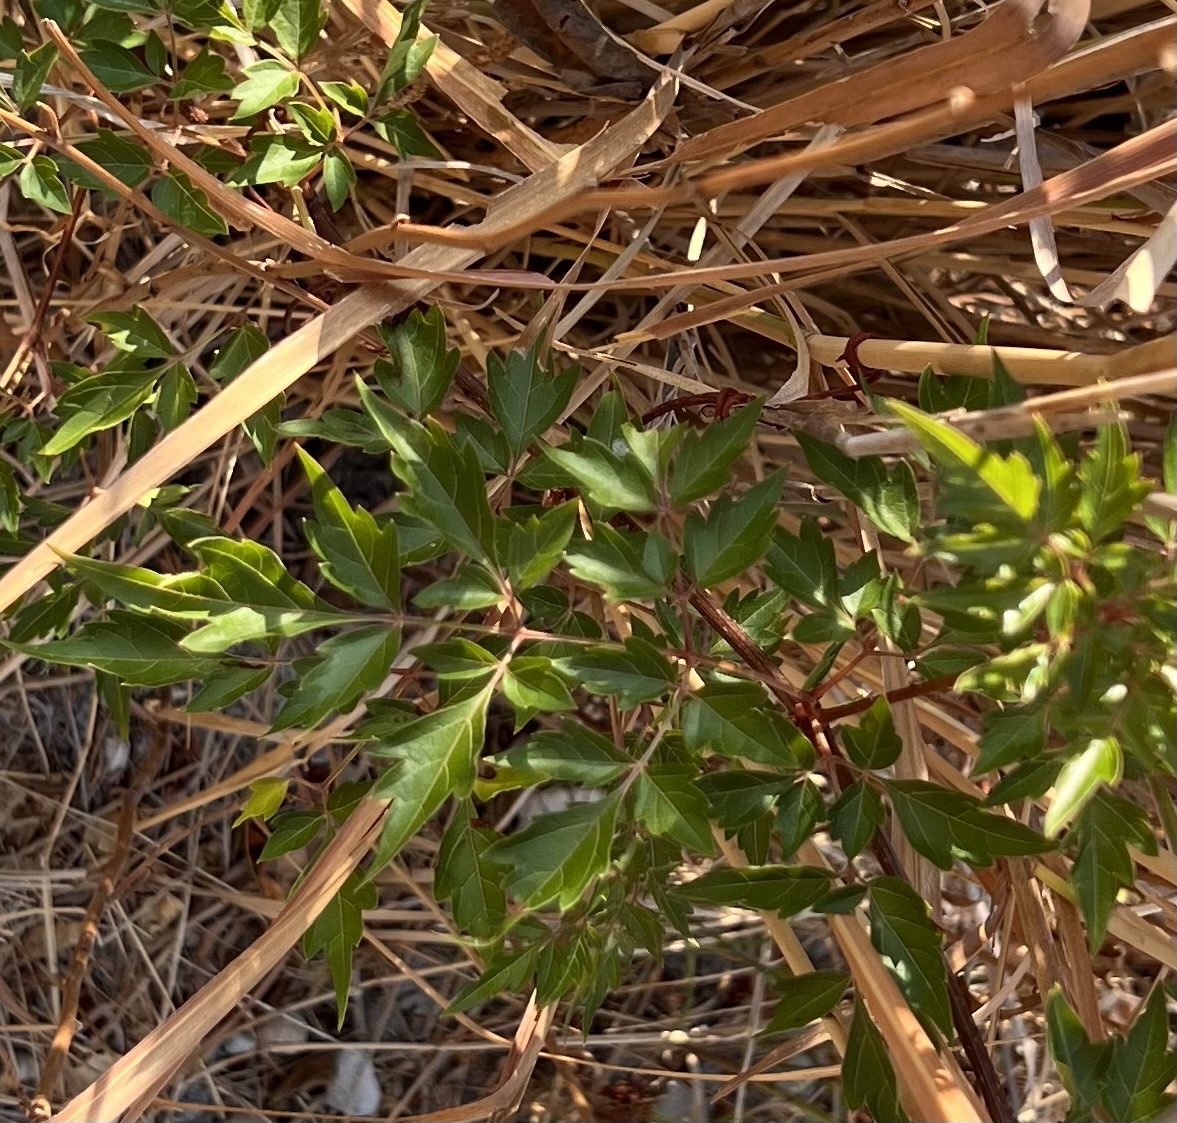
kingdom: Plantae
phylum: Tracheophyta
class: Magnoliopsida
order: Vitales
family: Vitaceae
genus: Nekemias
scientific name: Nekemias arborea
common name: Peppervine
